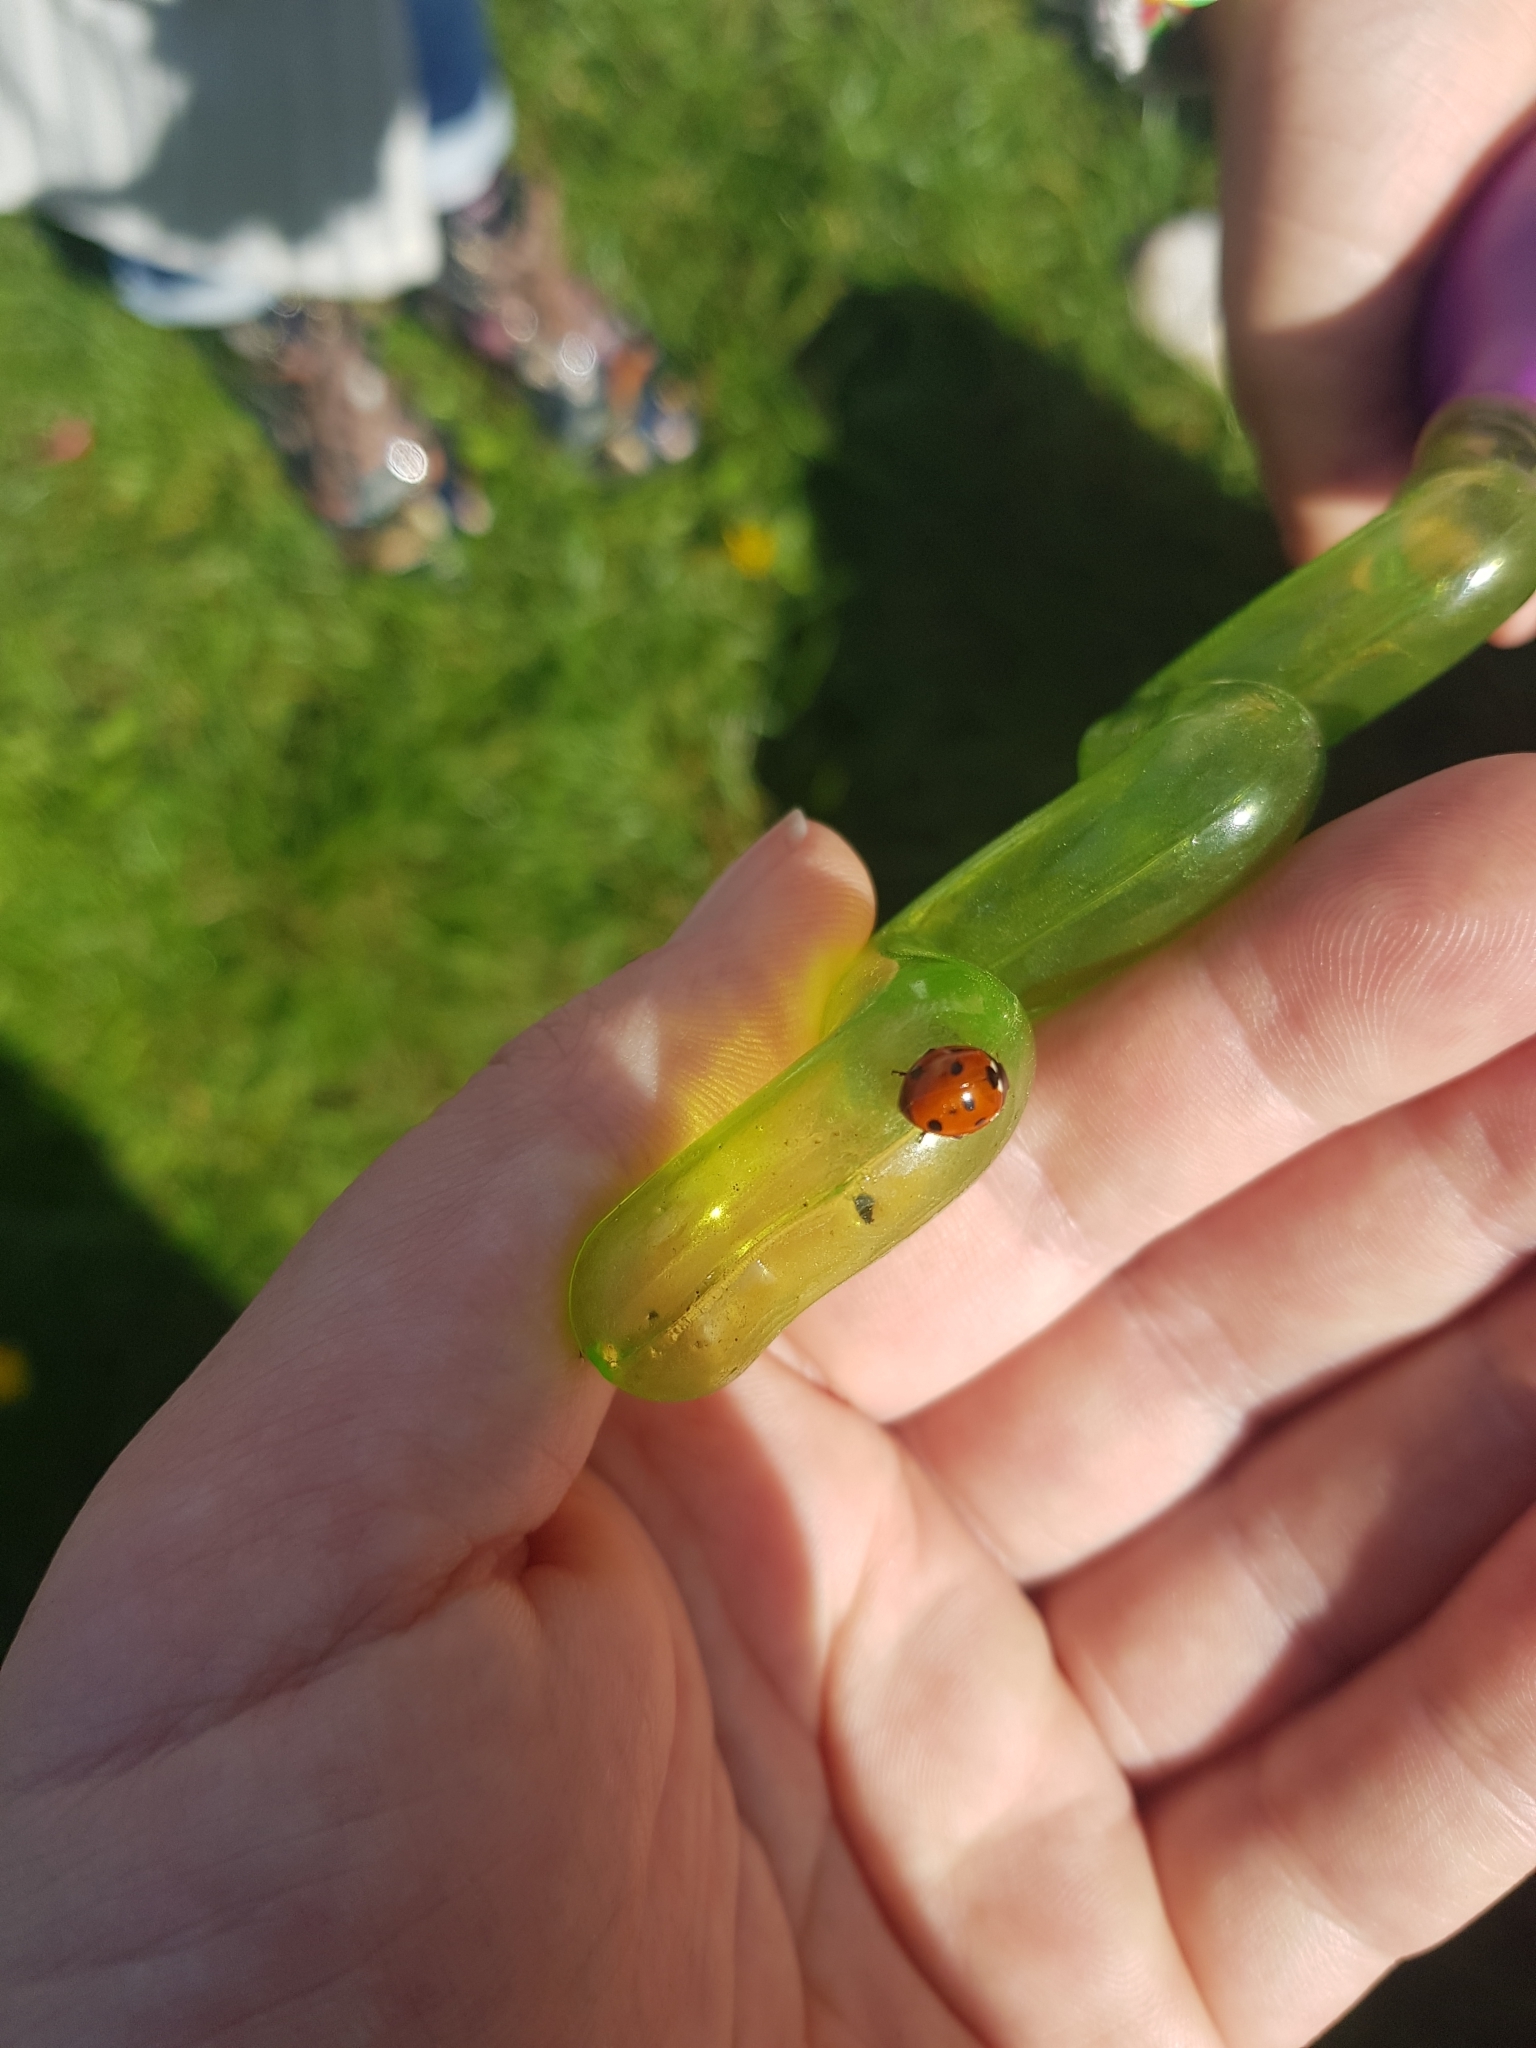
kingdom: Animalia
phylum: Arthropoda
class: Insecta
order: Coleoptera
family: Coccinellidae
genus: Coccinella
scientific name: Coccinella septempunctata
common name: Sevenspotted lady beetle
